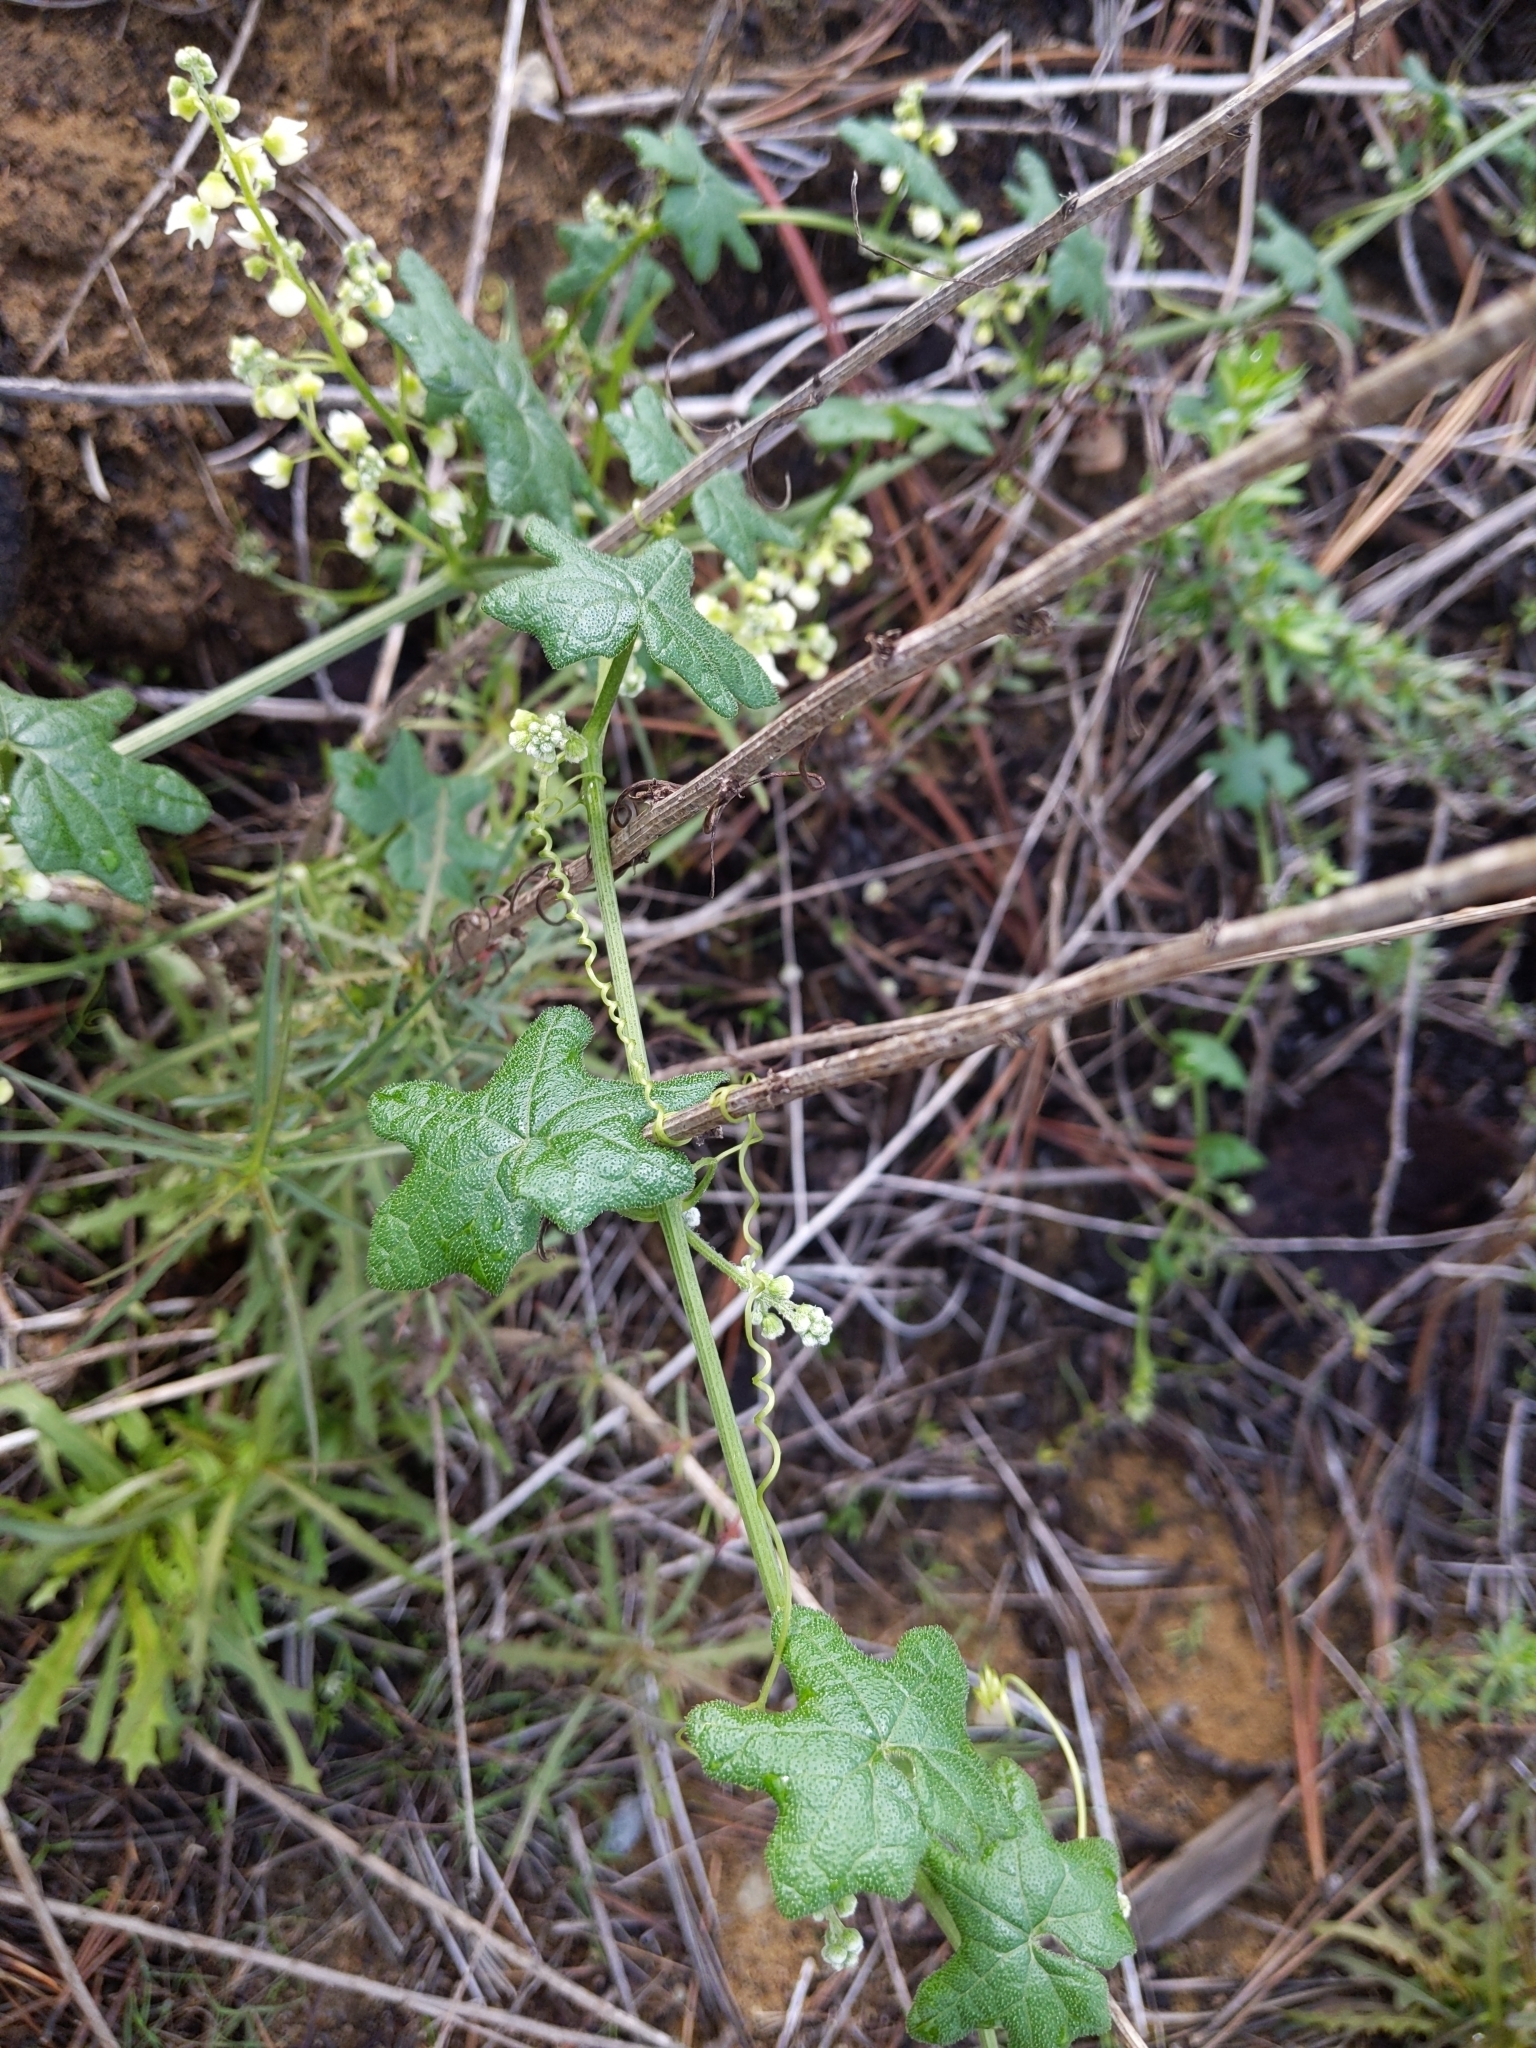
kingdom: Plantae
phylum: Tracheophyta
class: Magnoliopsida
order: Cucurbitales
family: Cucurbitaceae
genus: Marah
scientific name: Marah macrocarpa
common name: Cucamonga manroot
